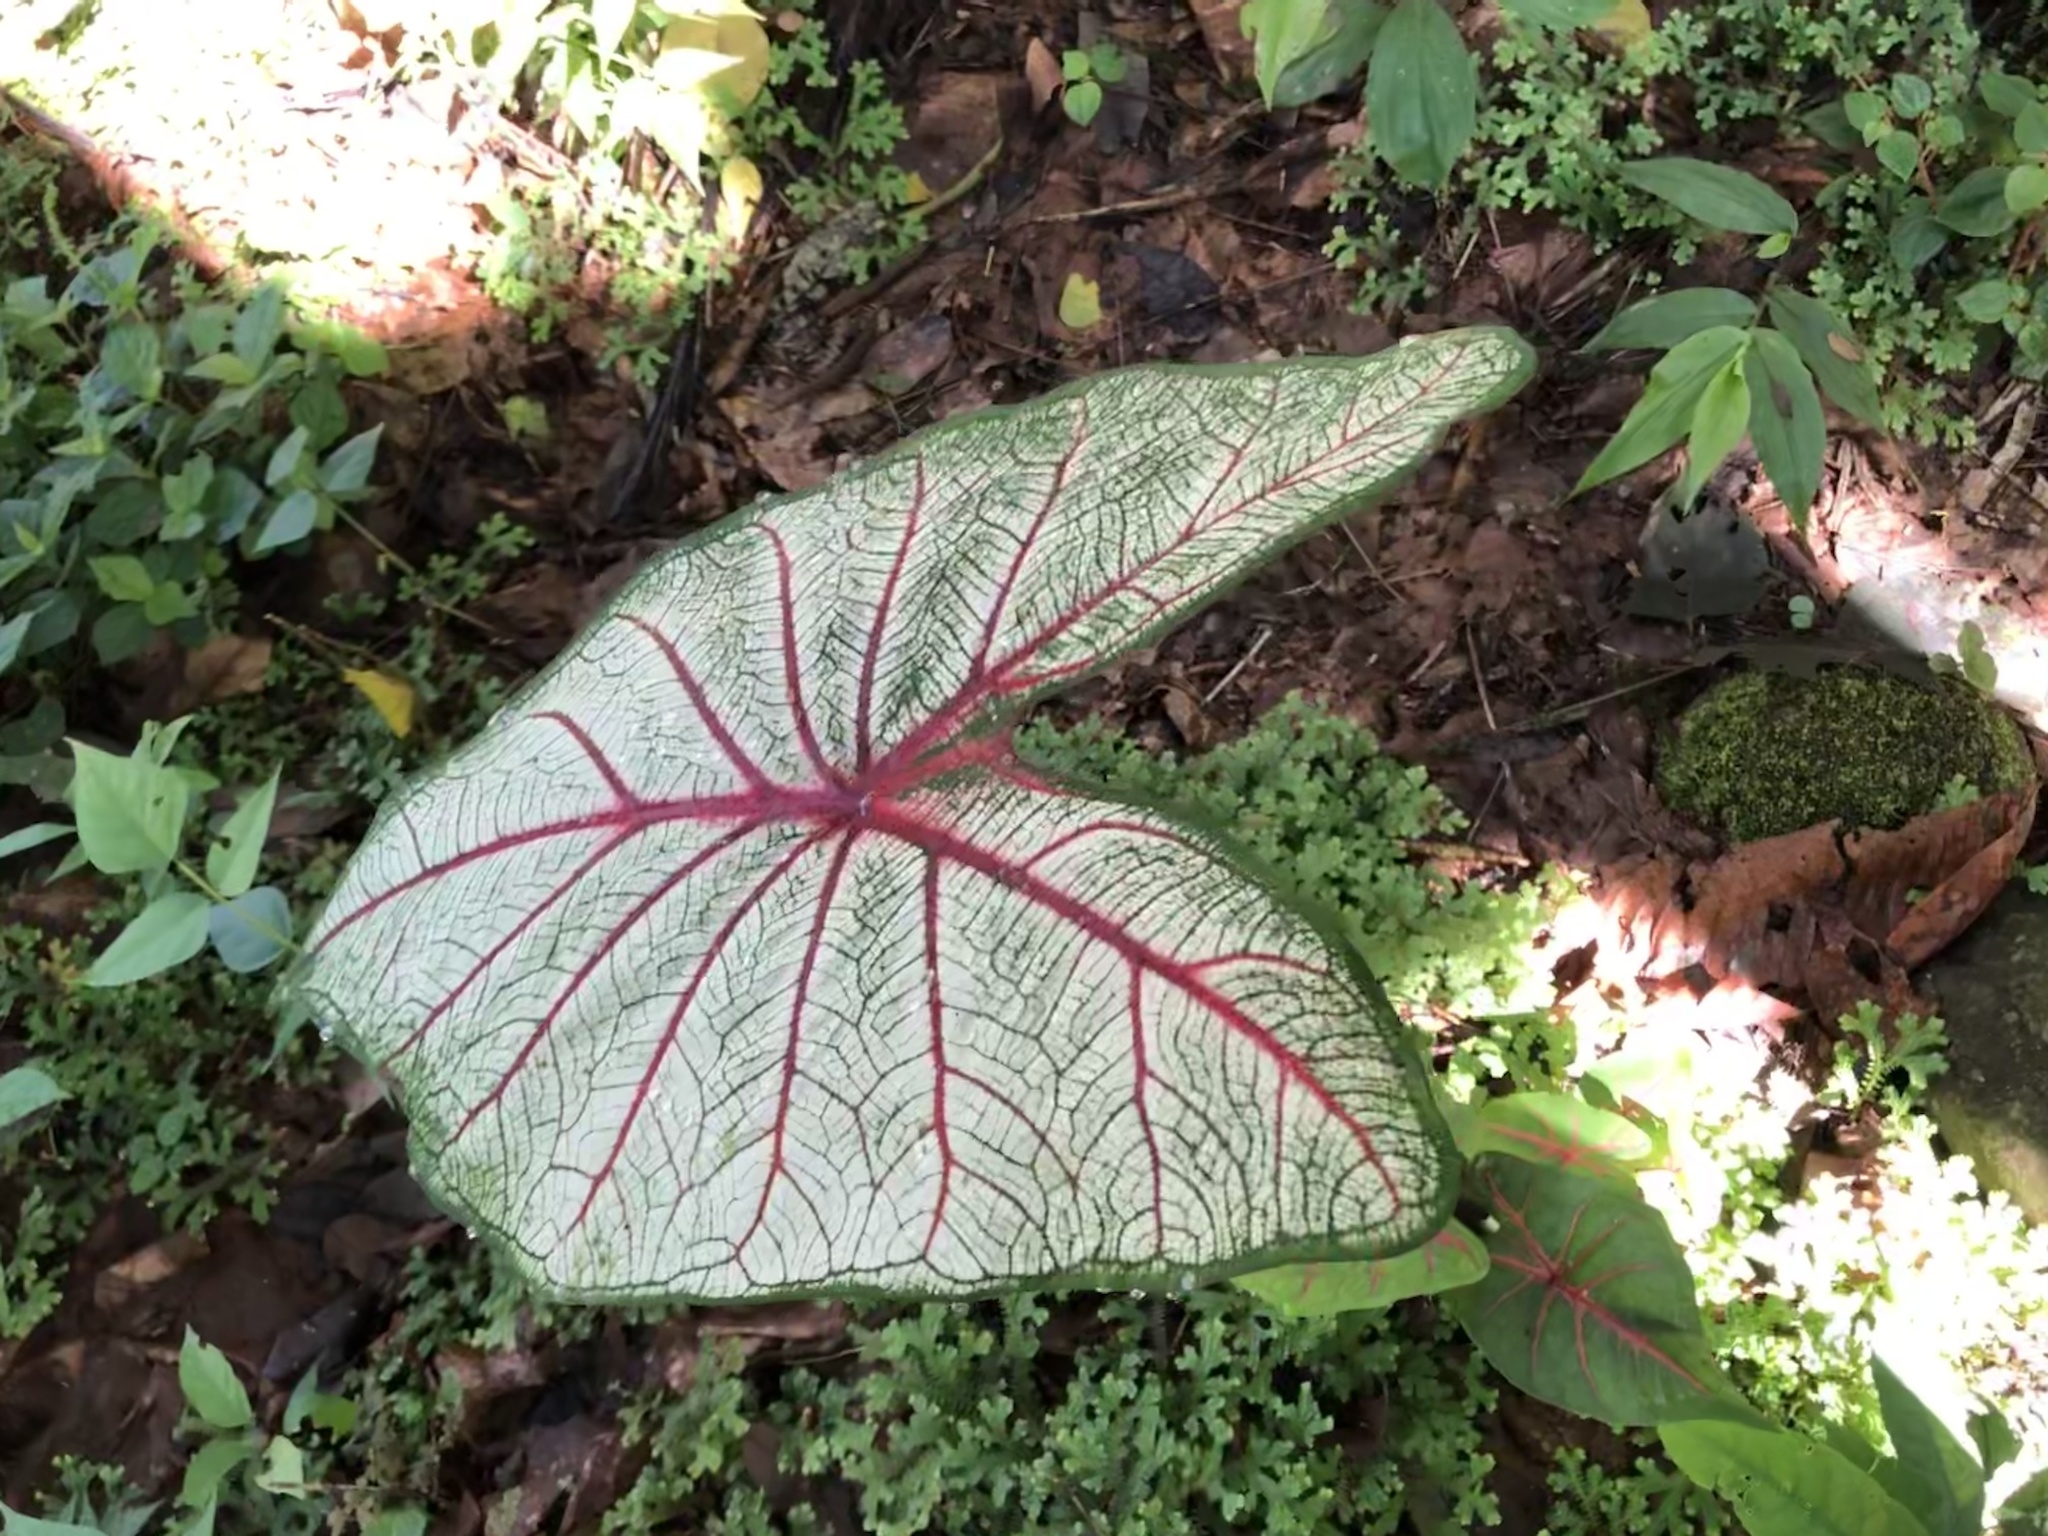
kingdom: Plantae
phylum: Tracheophyta
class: Liliopsida
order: Alismatales
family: Araceae
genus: Caladium
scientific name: Caladium bicolor
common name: Artist's pallet
